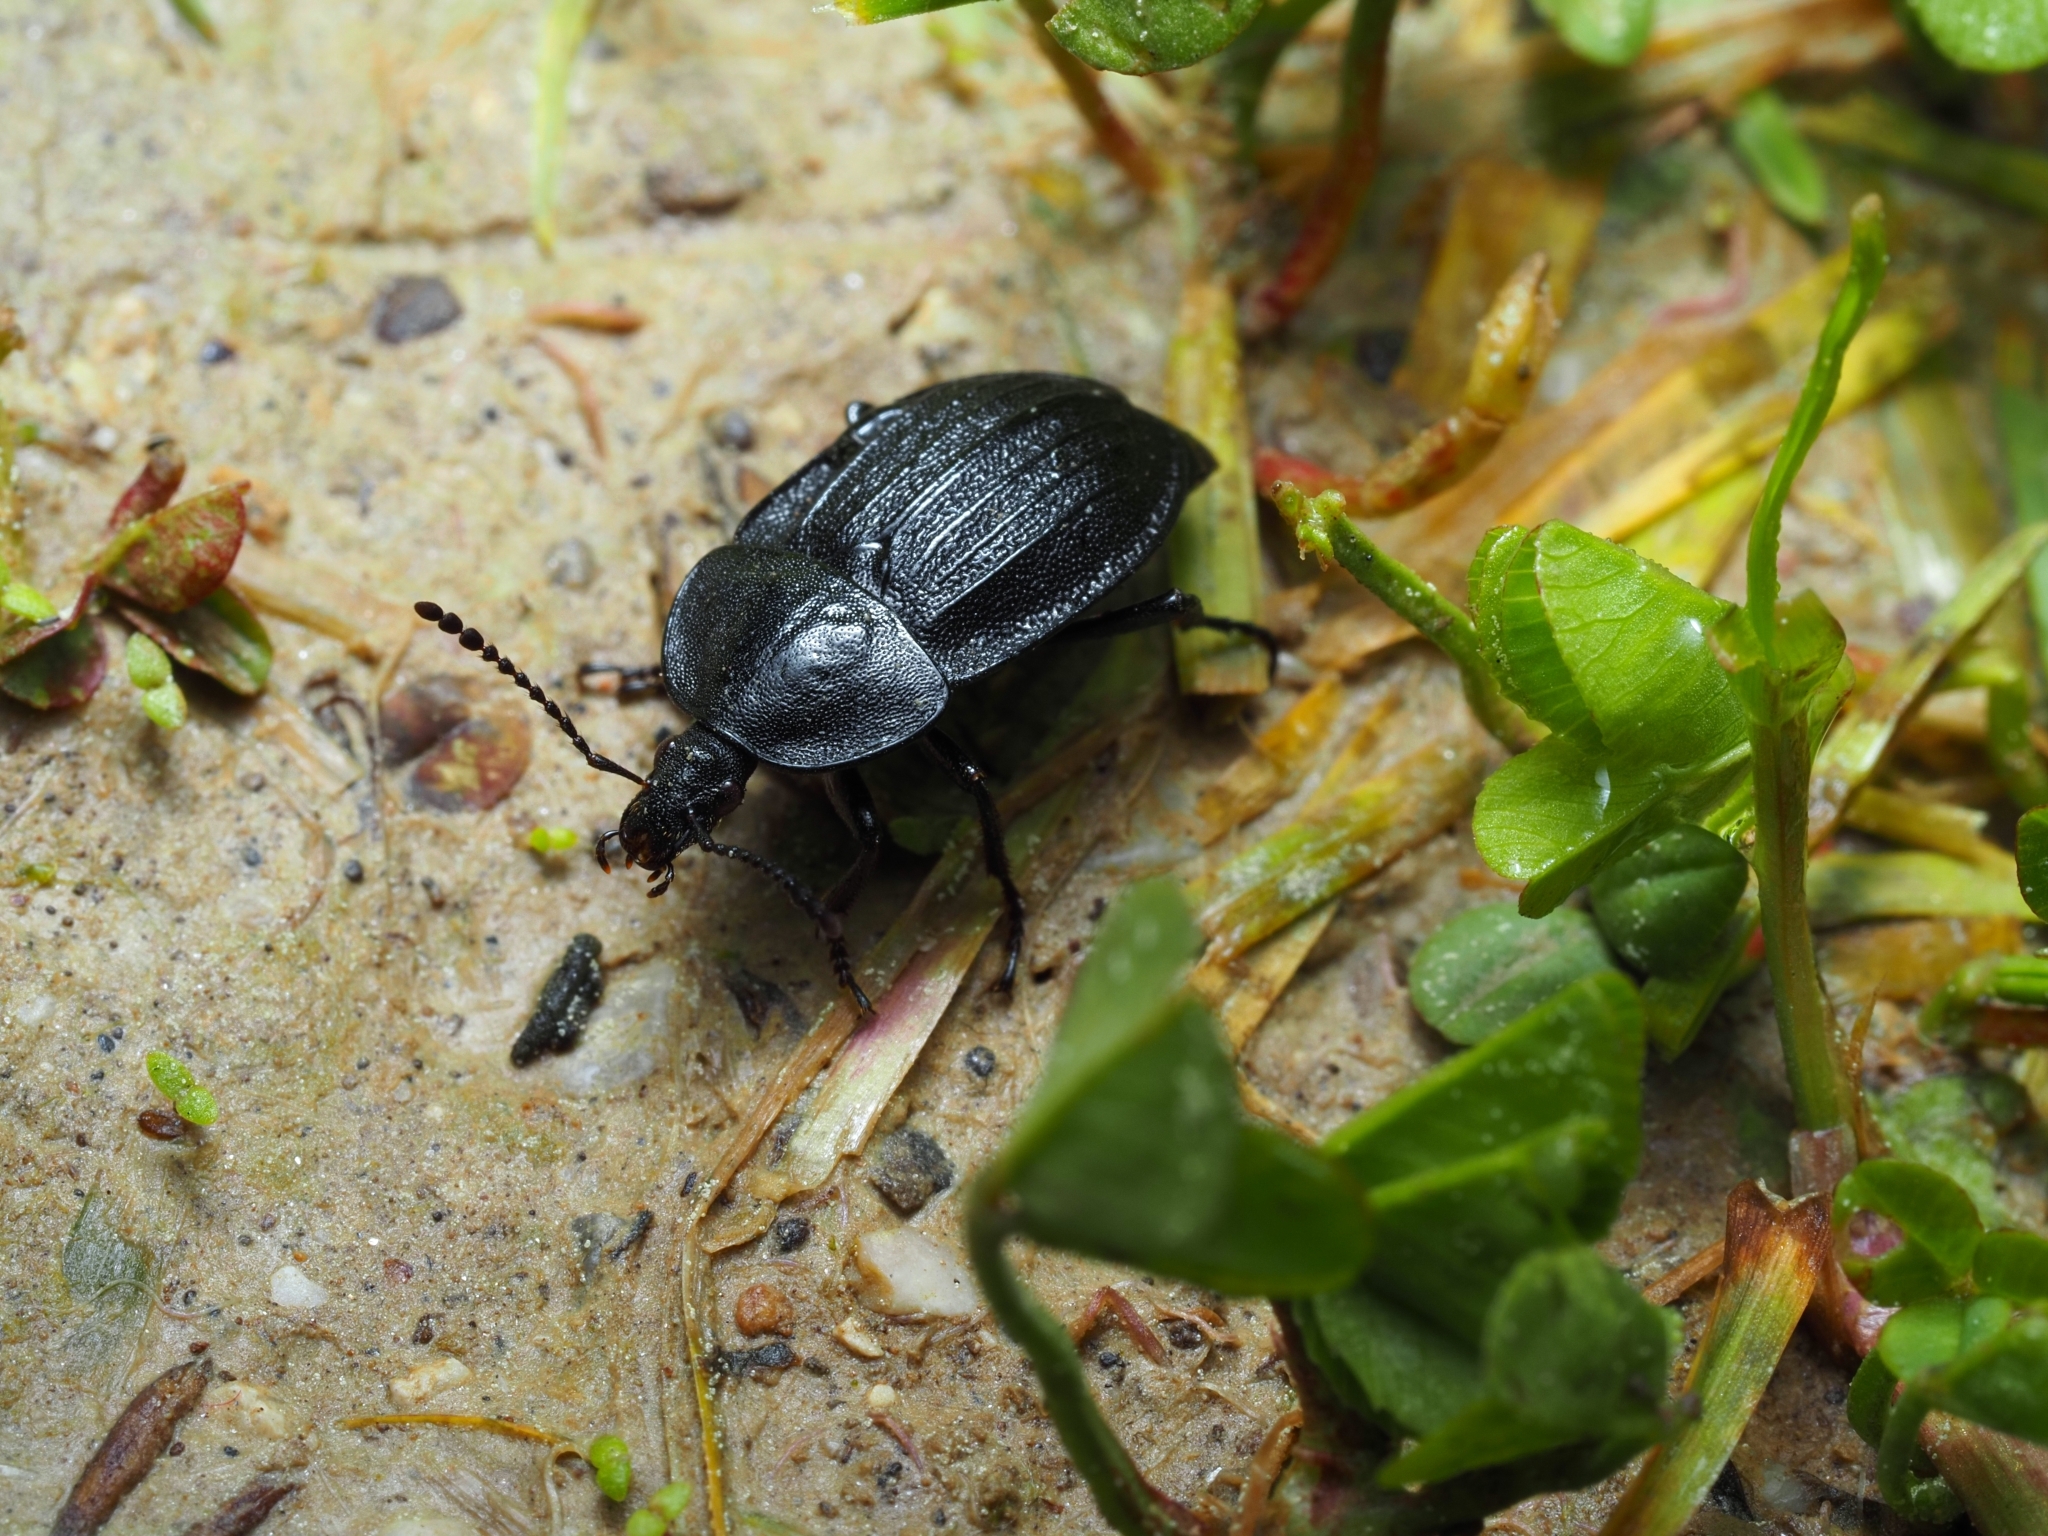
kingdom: Animalia
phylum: Arthropoda
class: Insecta
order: Coleoptera
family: Staphylinidae
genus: Silpha
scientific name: Silpha atrata
